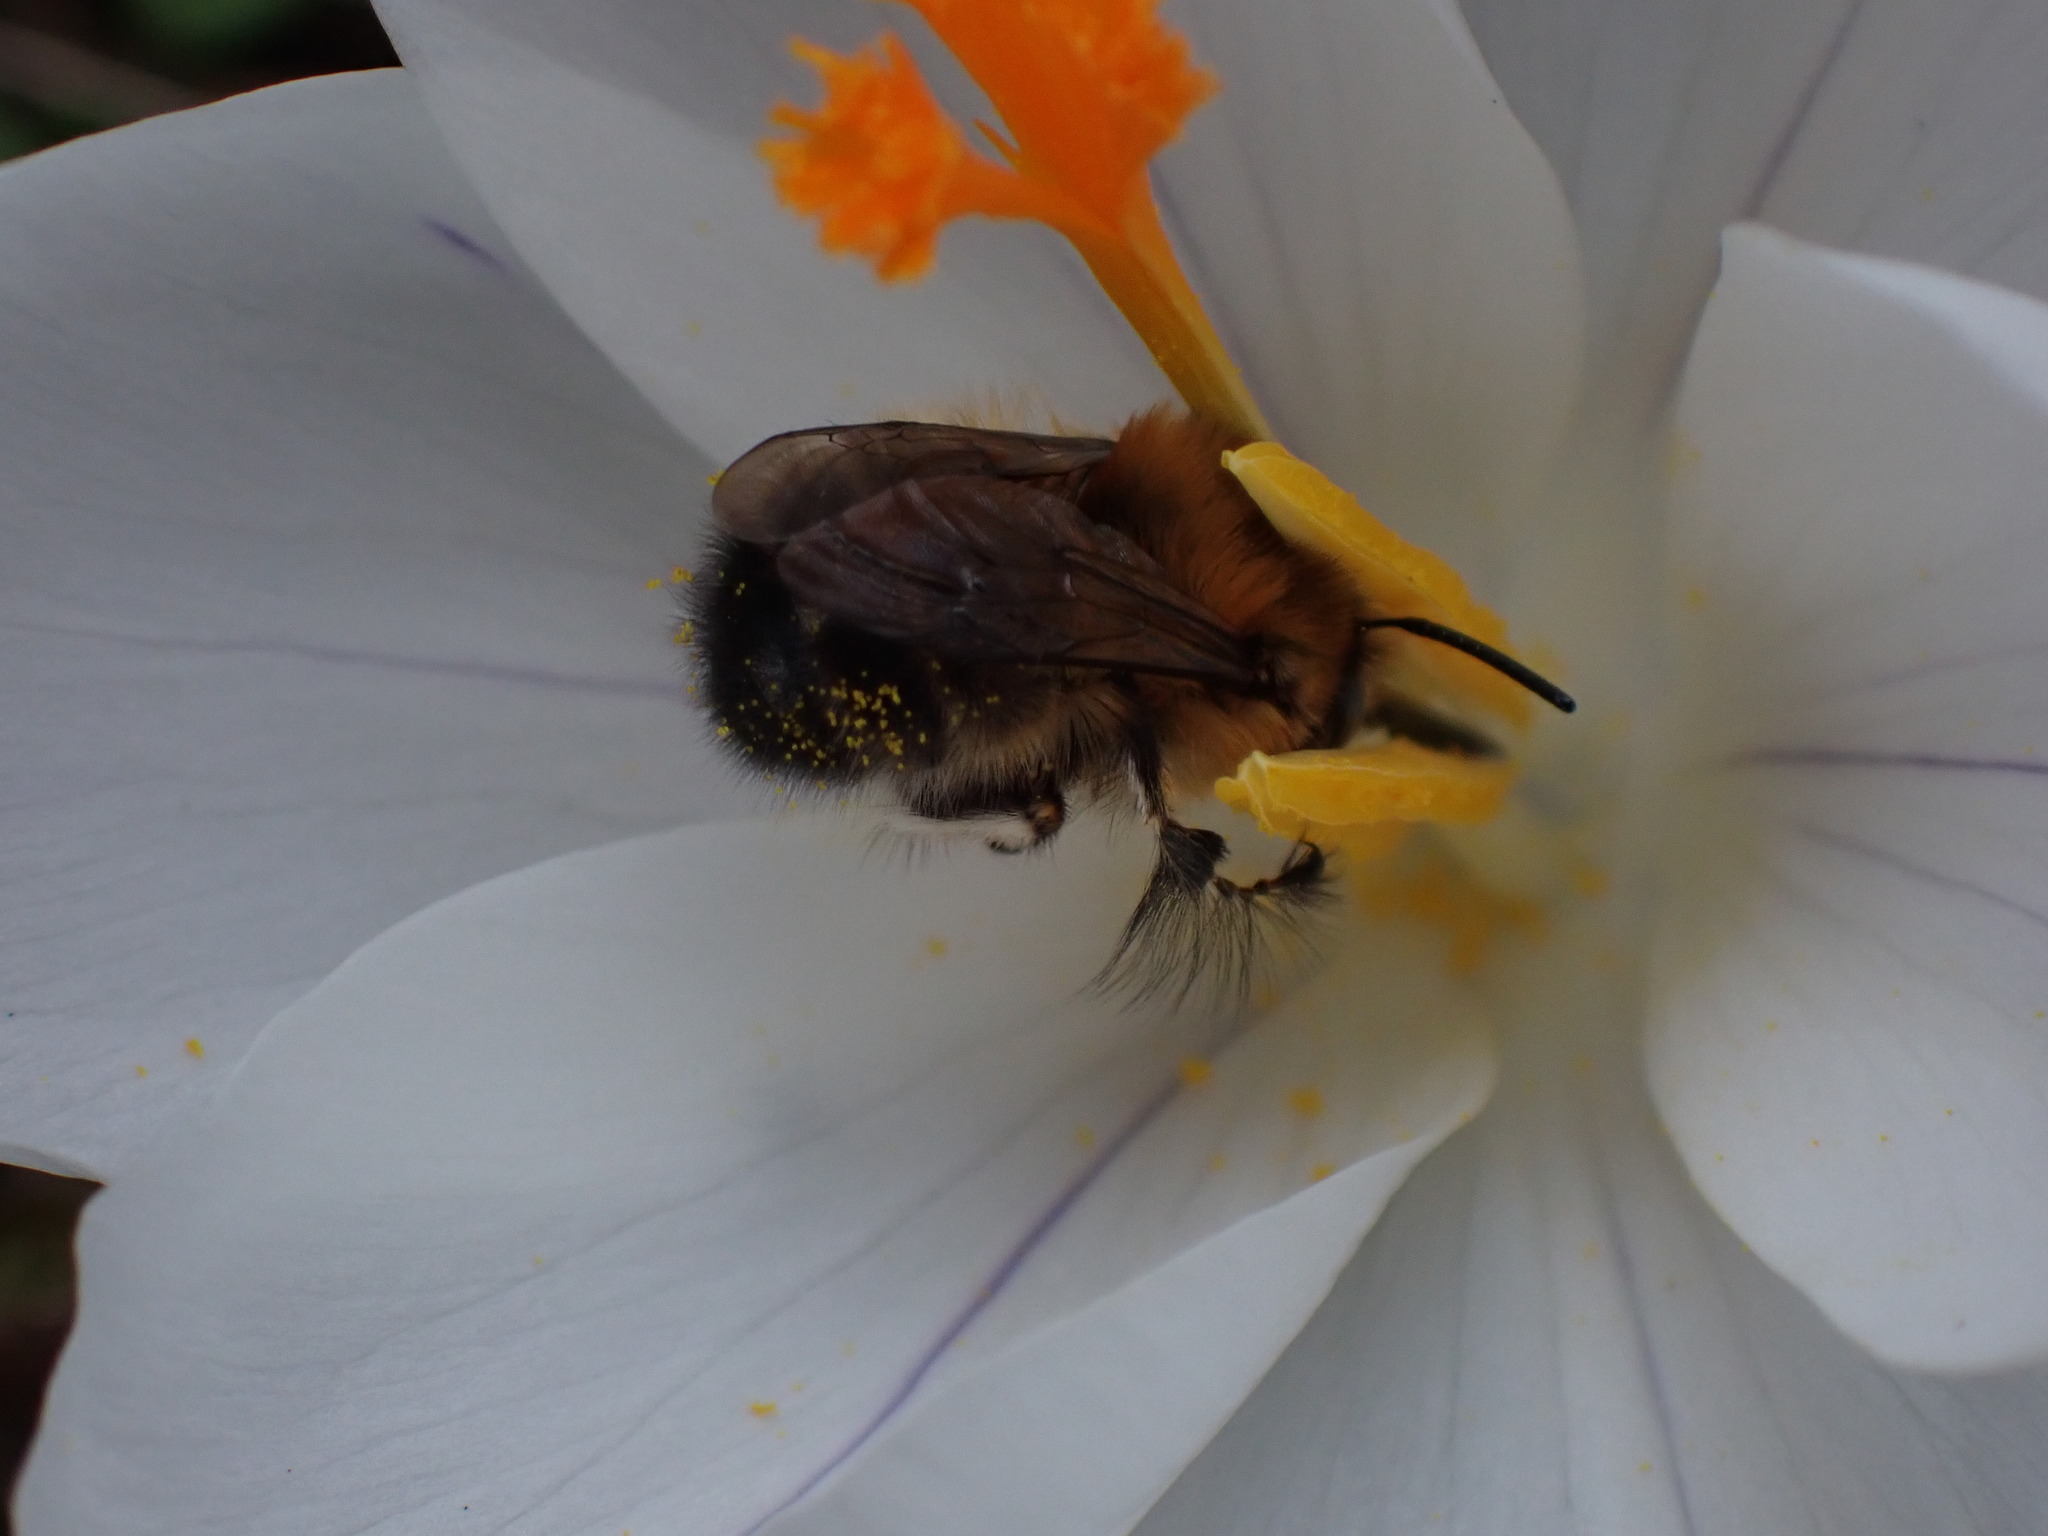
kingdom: Animalia
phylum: Arthropoda
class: Insecta
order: Hymenoptera
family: Apidae
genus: Anthophora
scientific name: Anthophora plumipes
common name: Hairy-footed flower bee
